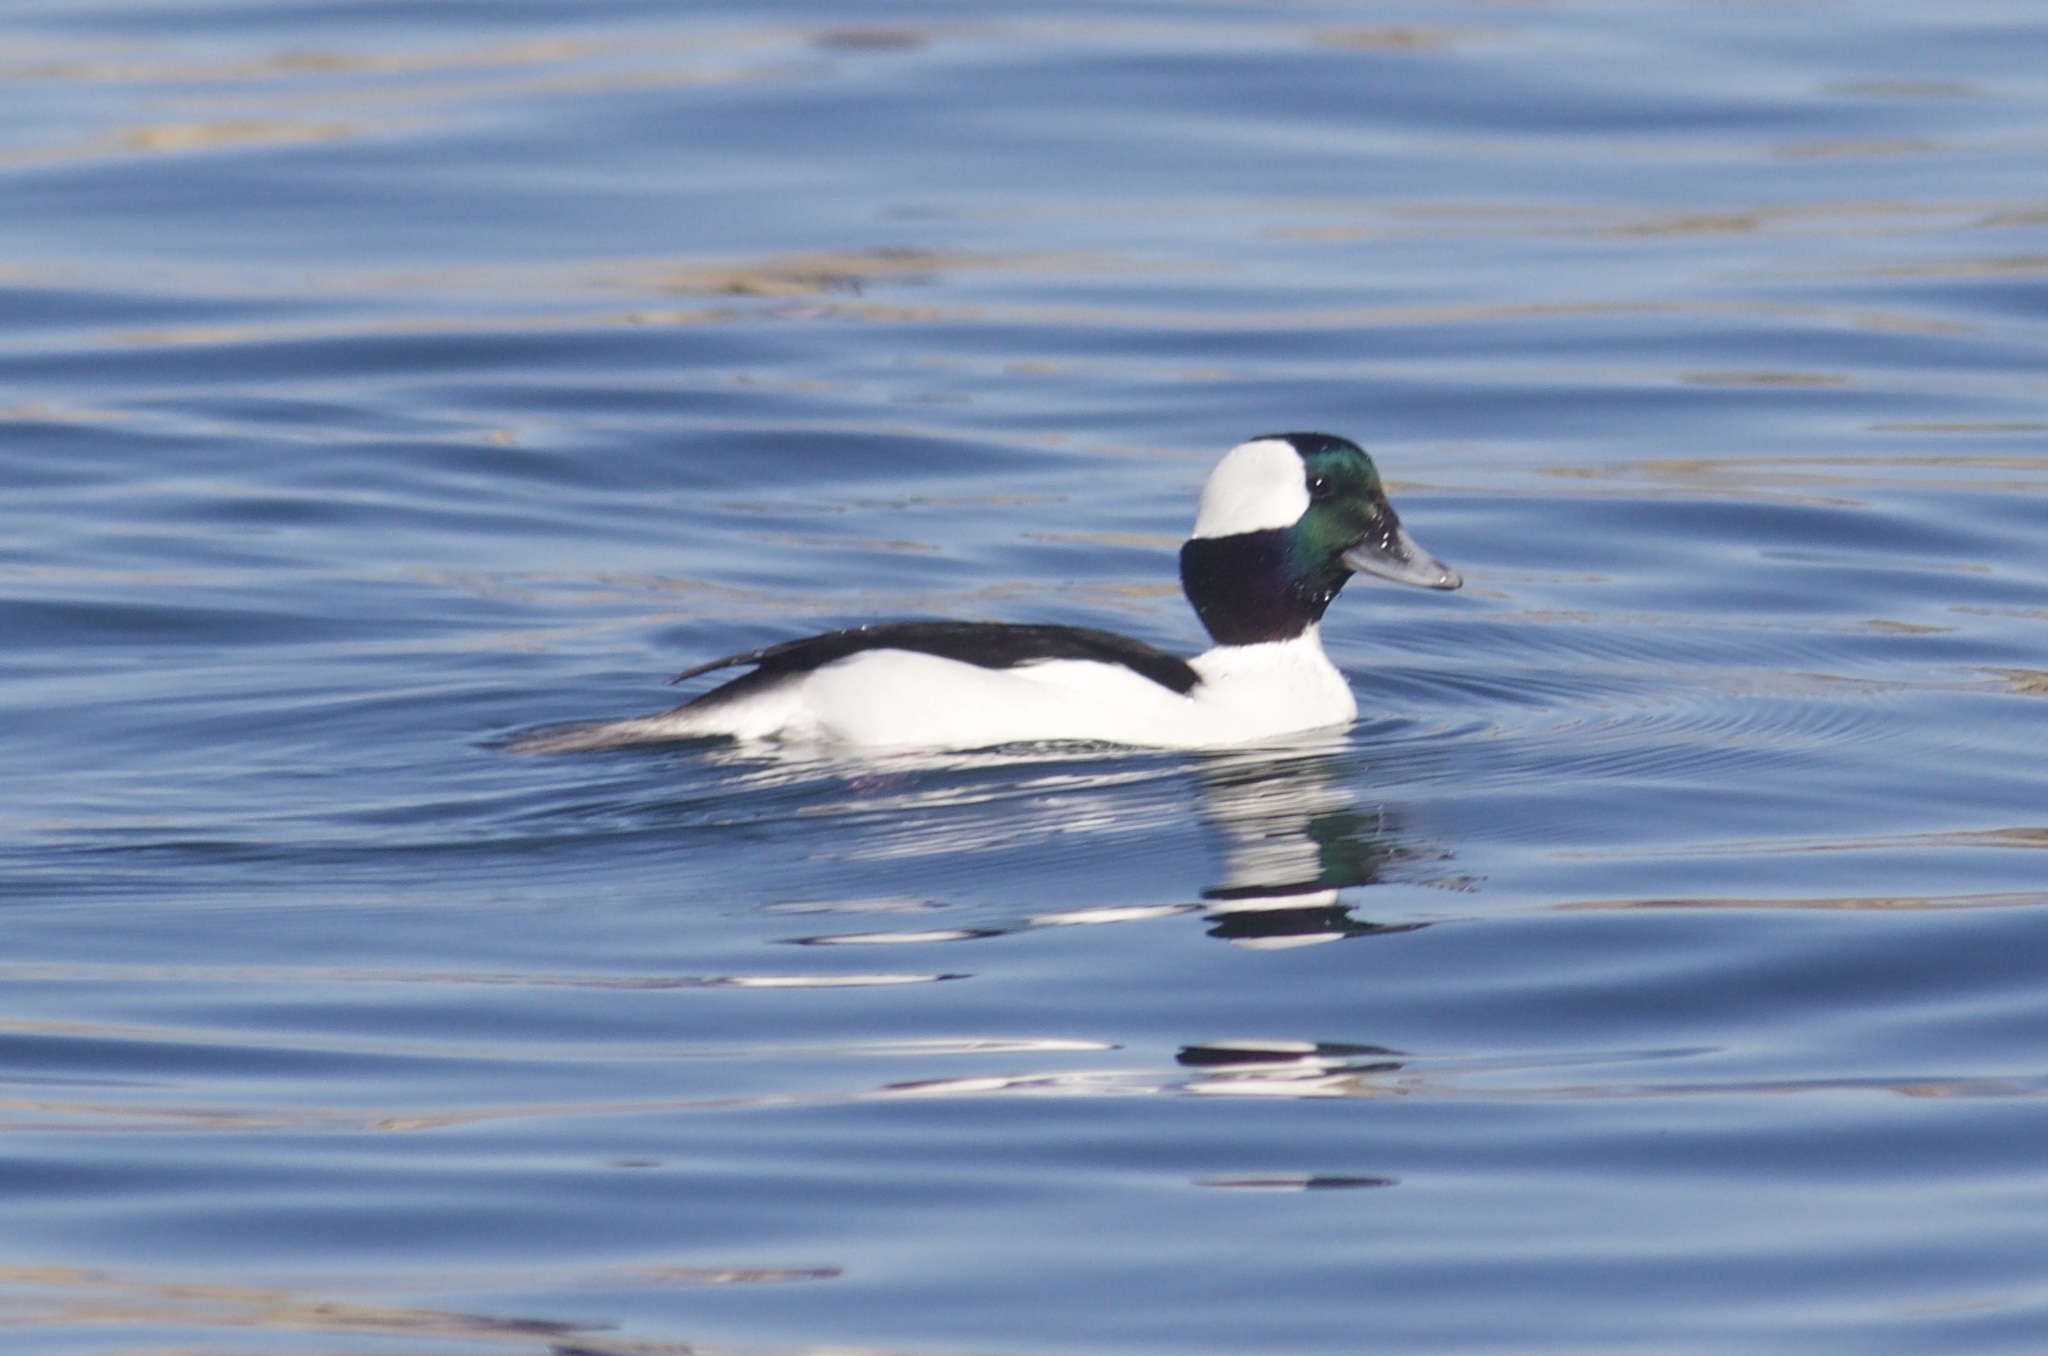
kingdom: Animalia
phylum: Chordata
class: Aves
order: Anseriformes
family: Anatidae
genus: Bucephala
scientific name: Bucephala albeola
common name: Bufflehead
